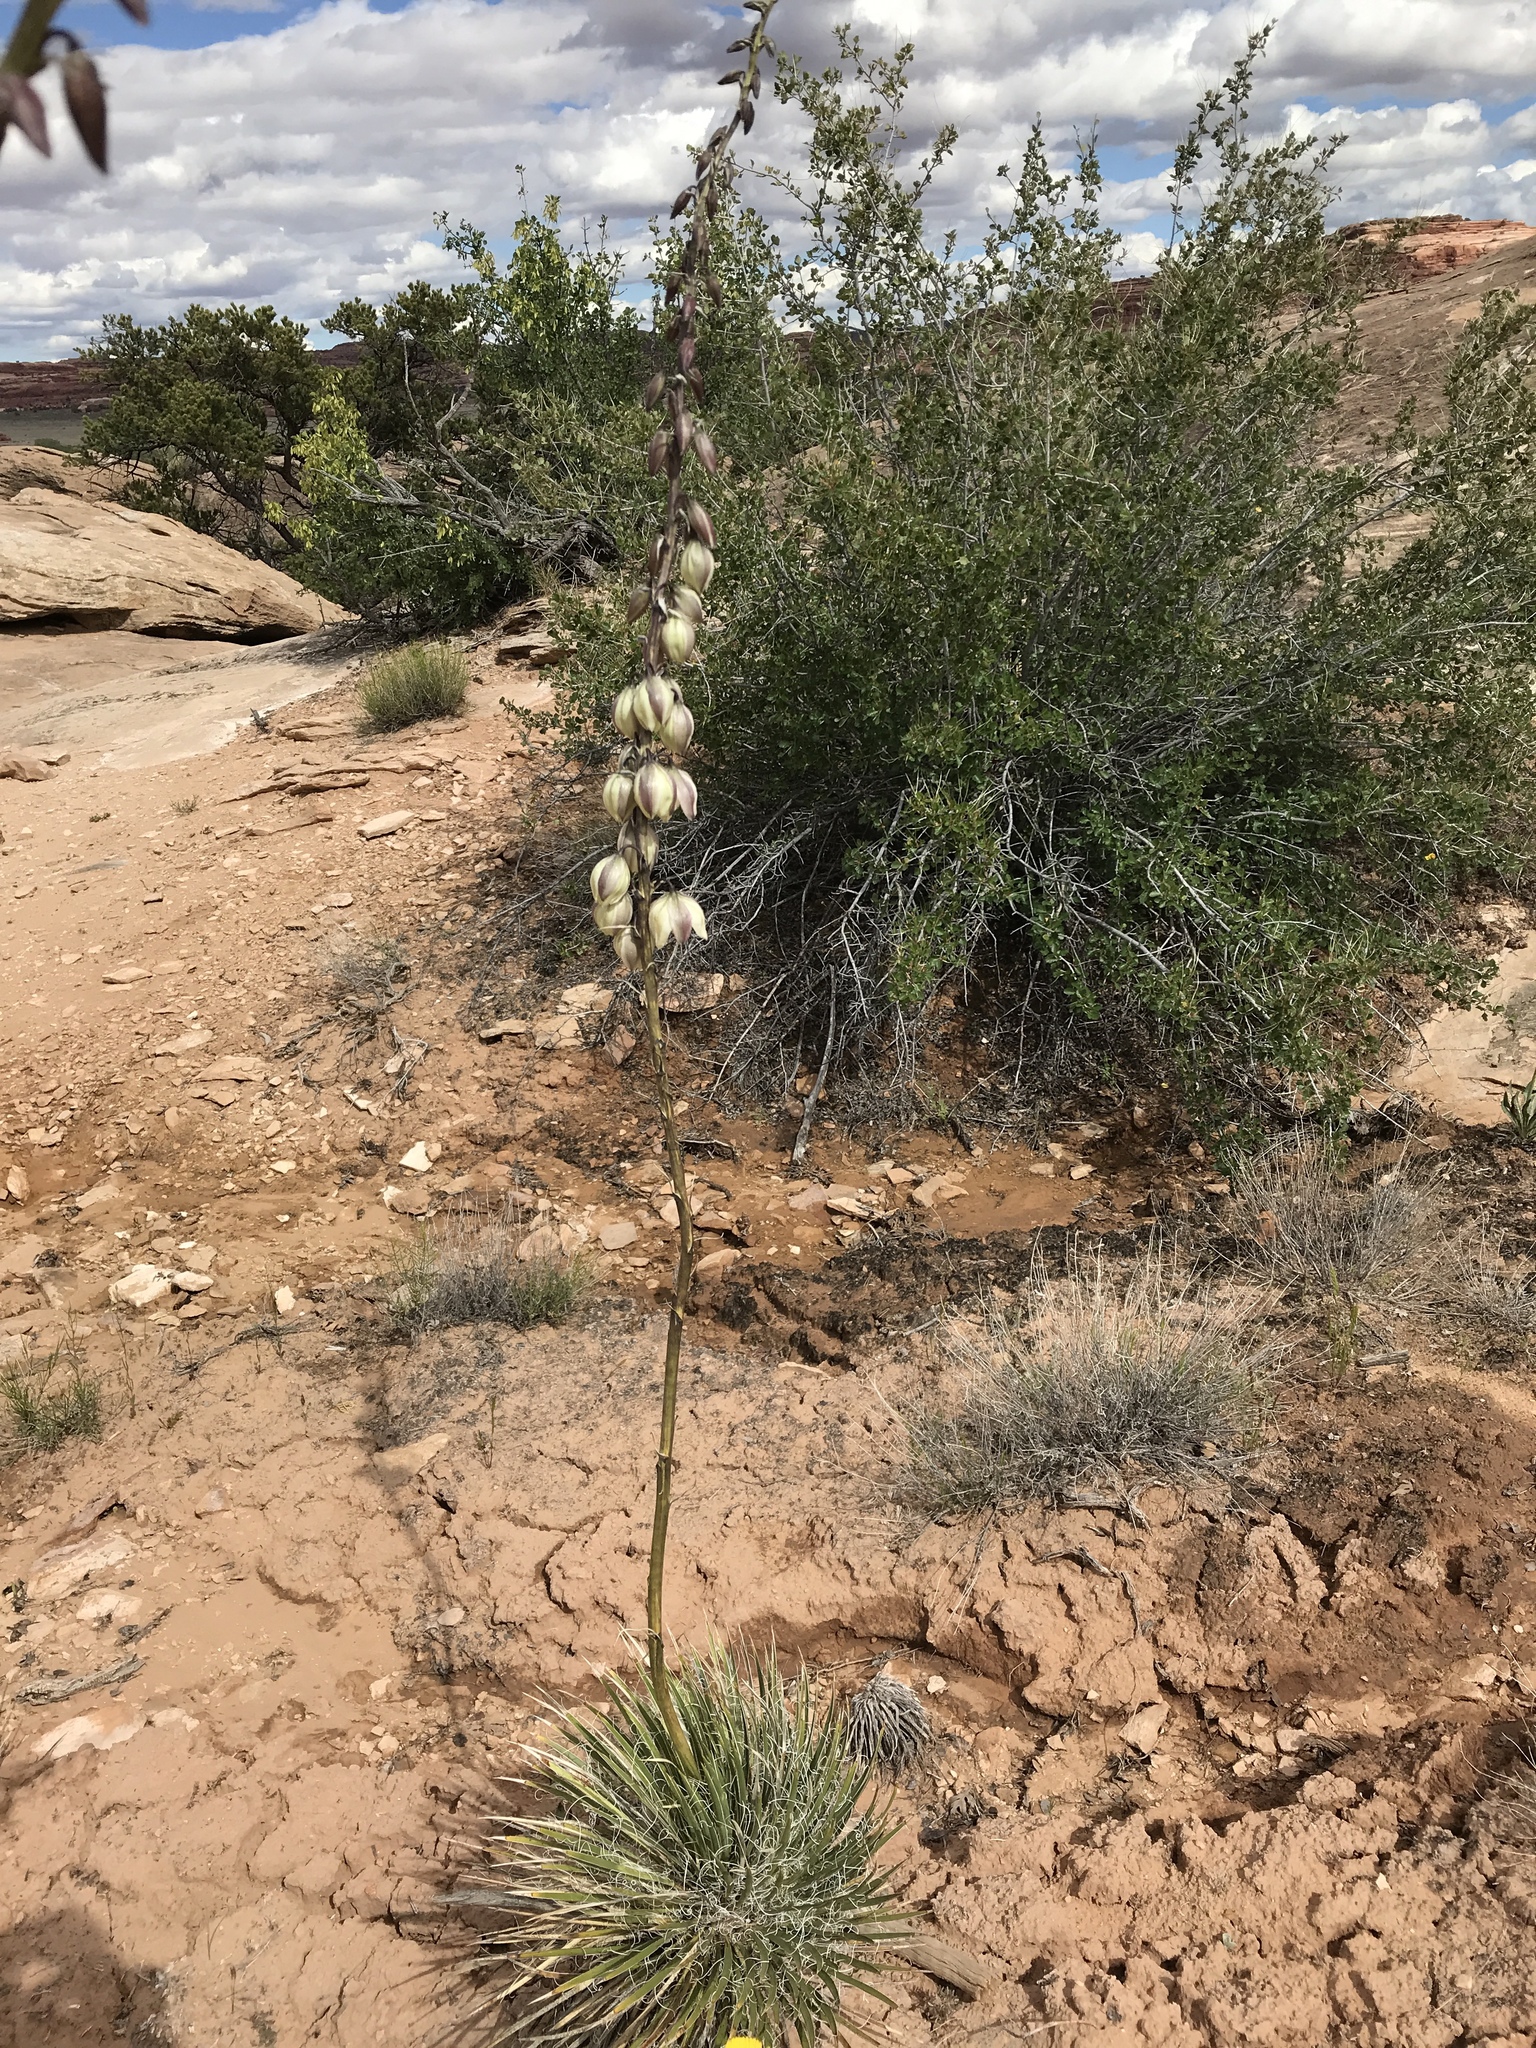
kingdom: Plantae
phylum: Tracheophyta
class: Liliopsida
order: Asparagales
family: Asparagaceae
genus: Yucca
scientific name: Yucca angustissima
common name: Narrowleaf yucca
